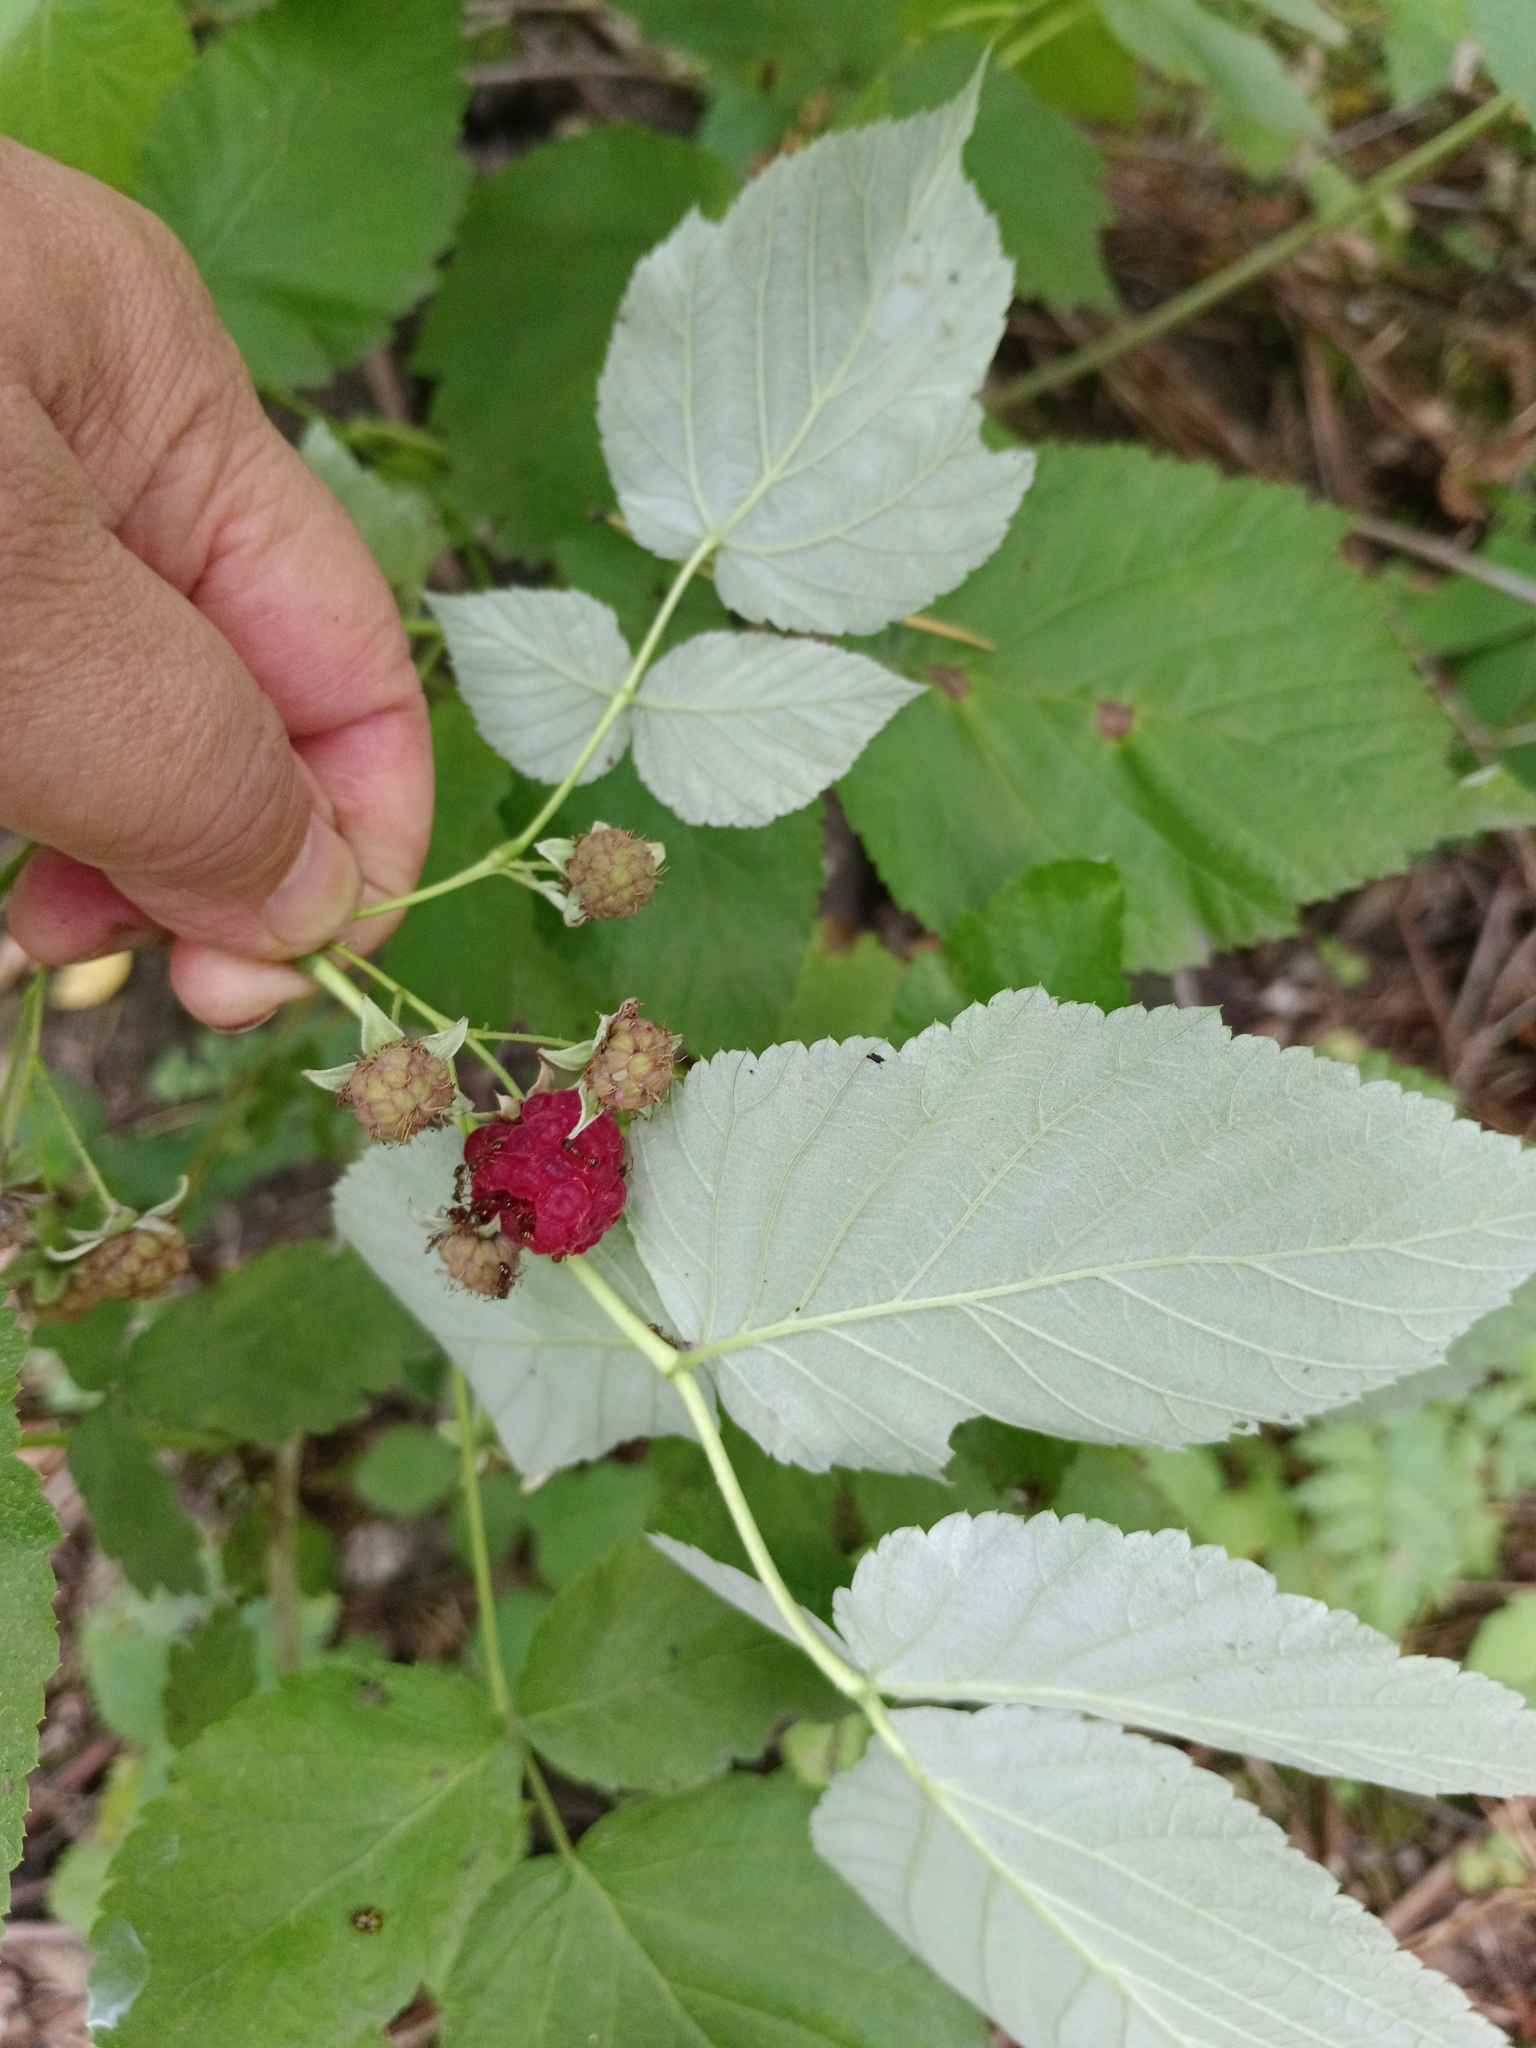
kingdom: Plantae
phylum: Tracheophyta
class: Magnoliopsida
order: Rosales
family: Rosaceae
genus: Rubus
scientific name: Rubus idaeus
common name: Raspberry
